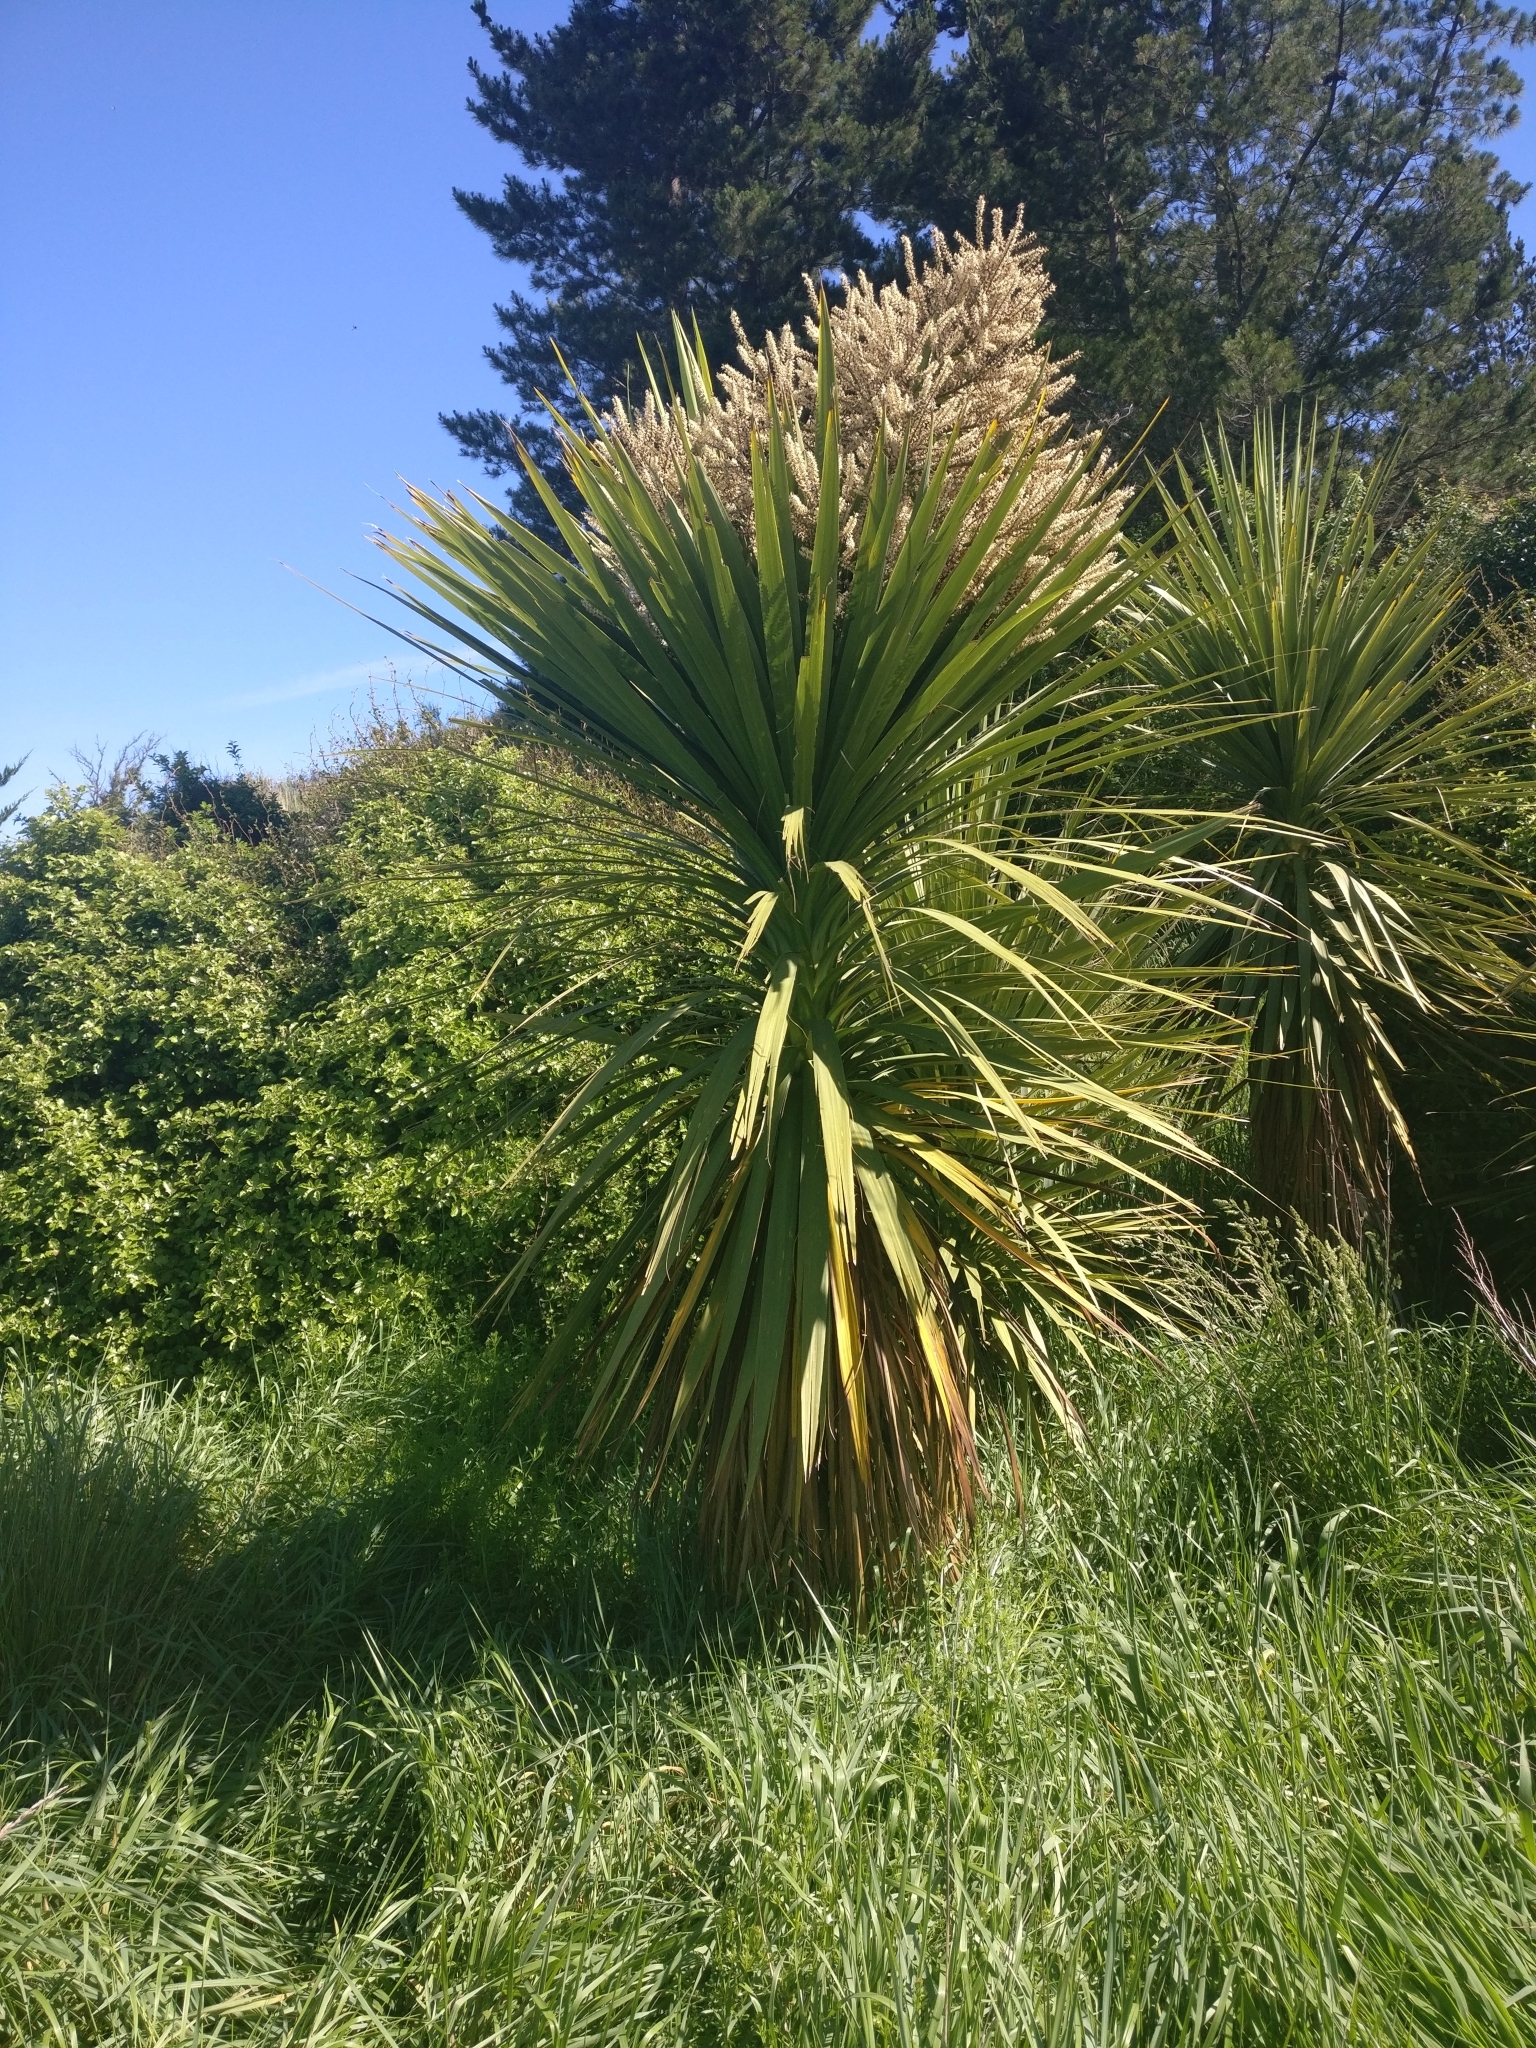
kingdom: Plantae
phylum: Tracheophyta
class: Liliopsida
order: Asparagales
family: Asparagaceae
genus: Cordyline
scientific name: Cordyline australis
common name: Cabbage-palm
